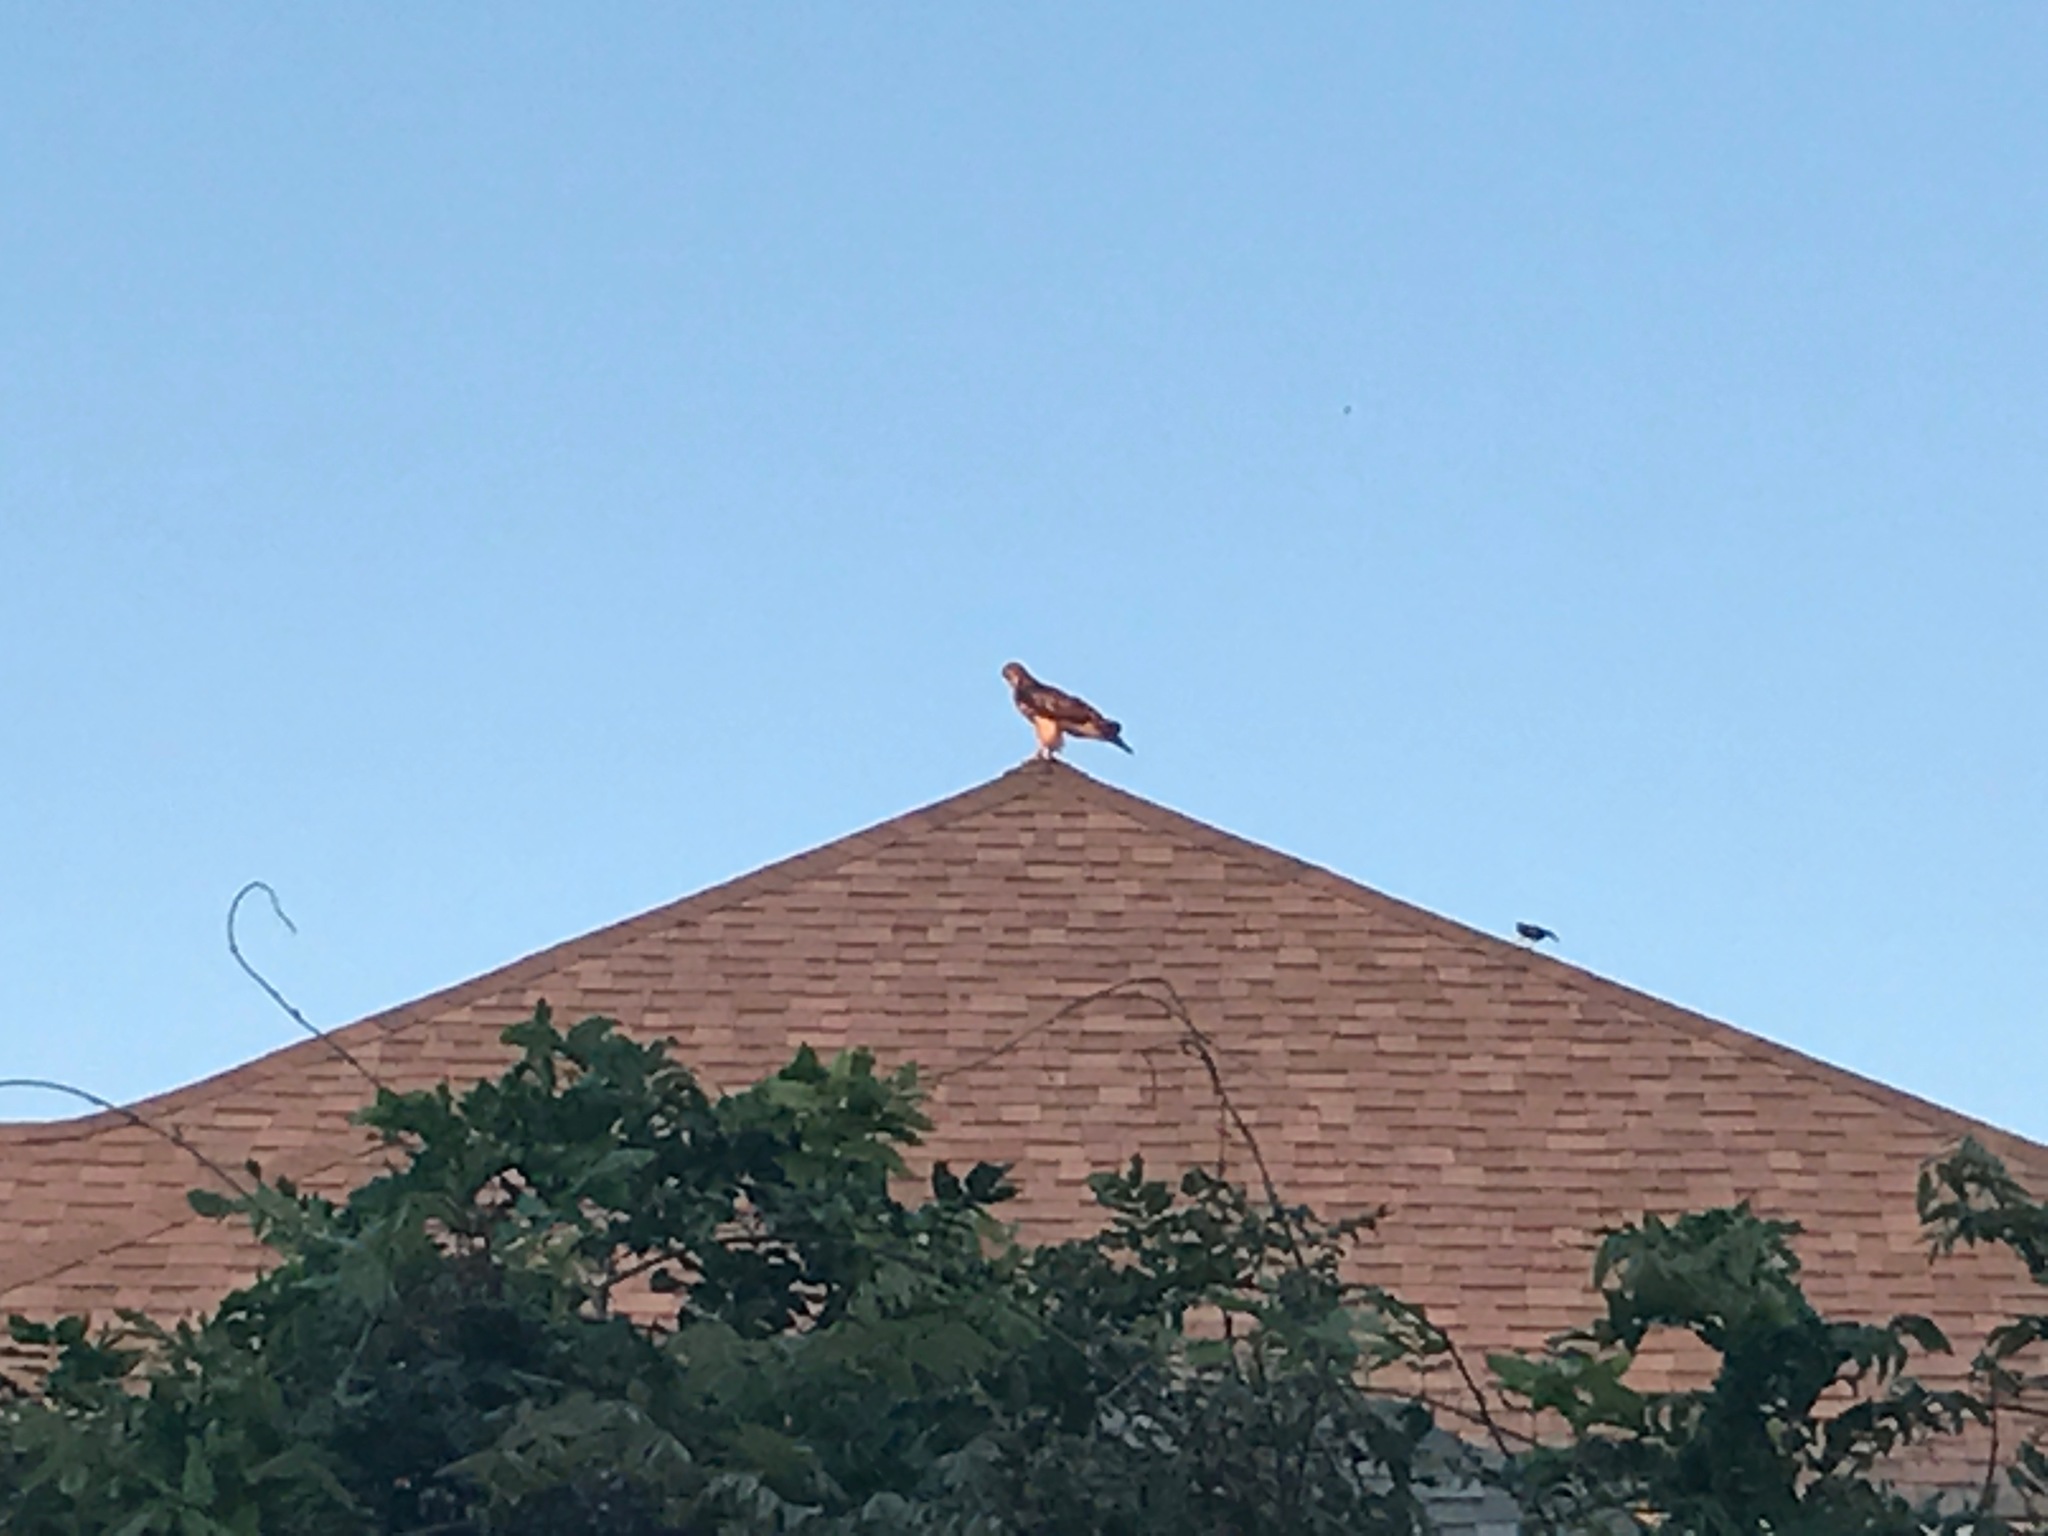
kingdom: Animalia
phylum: Chordata
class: Aves
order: Accipitriformes
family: Accipitridae
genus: Buteo
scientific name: Buteo jamaicensis
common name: Red-tailed hawk
